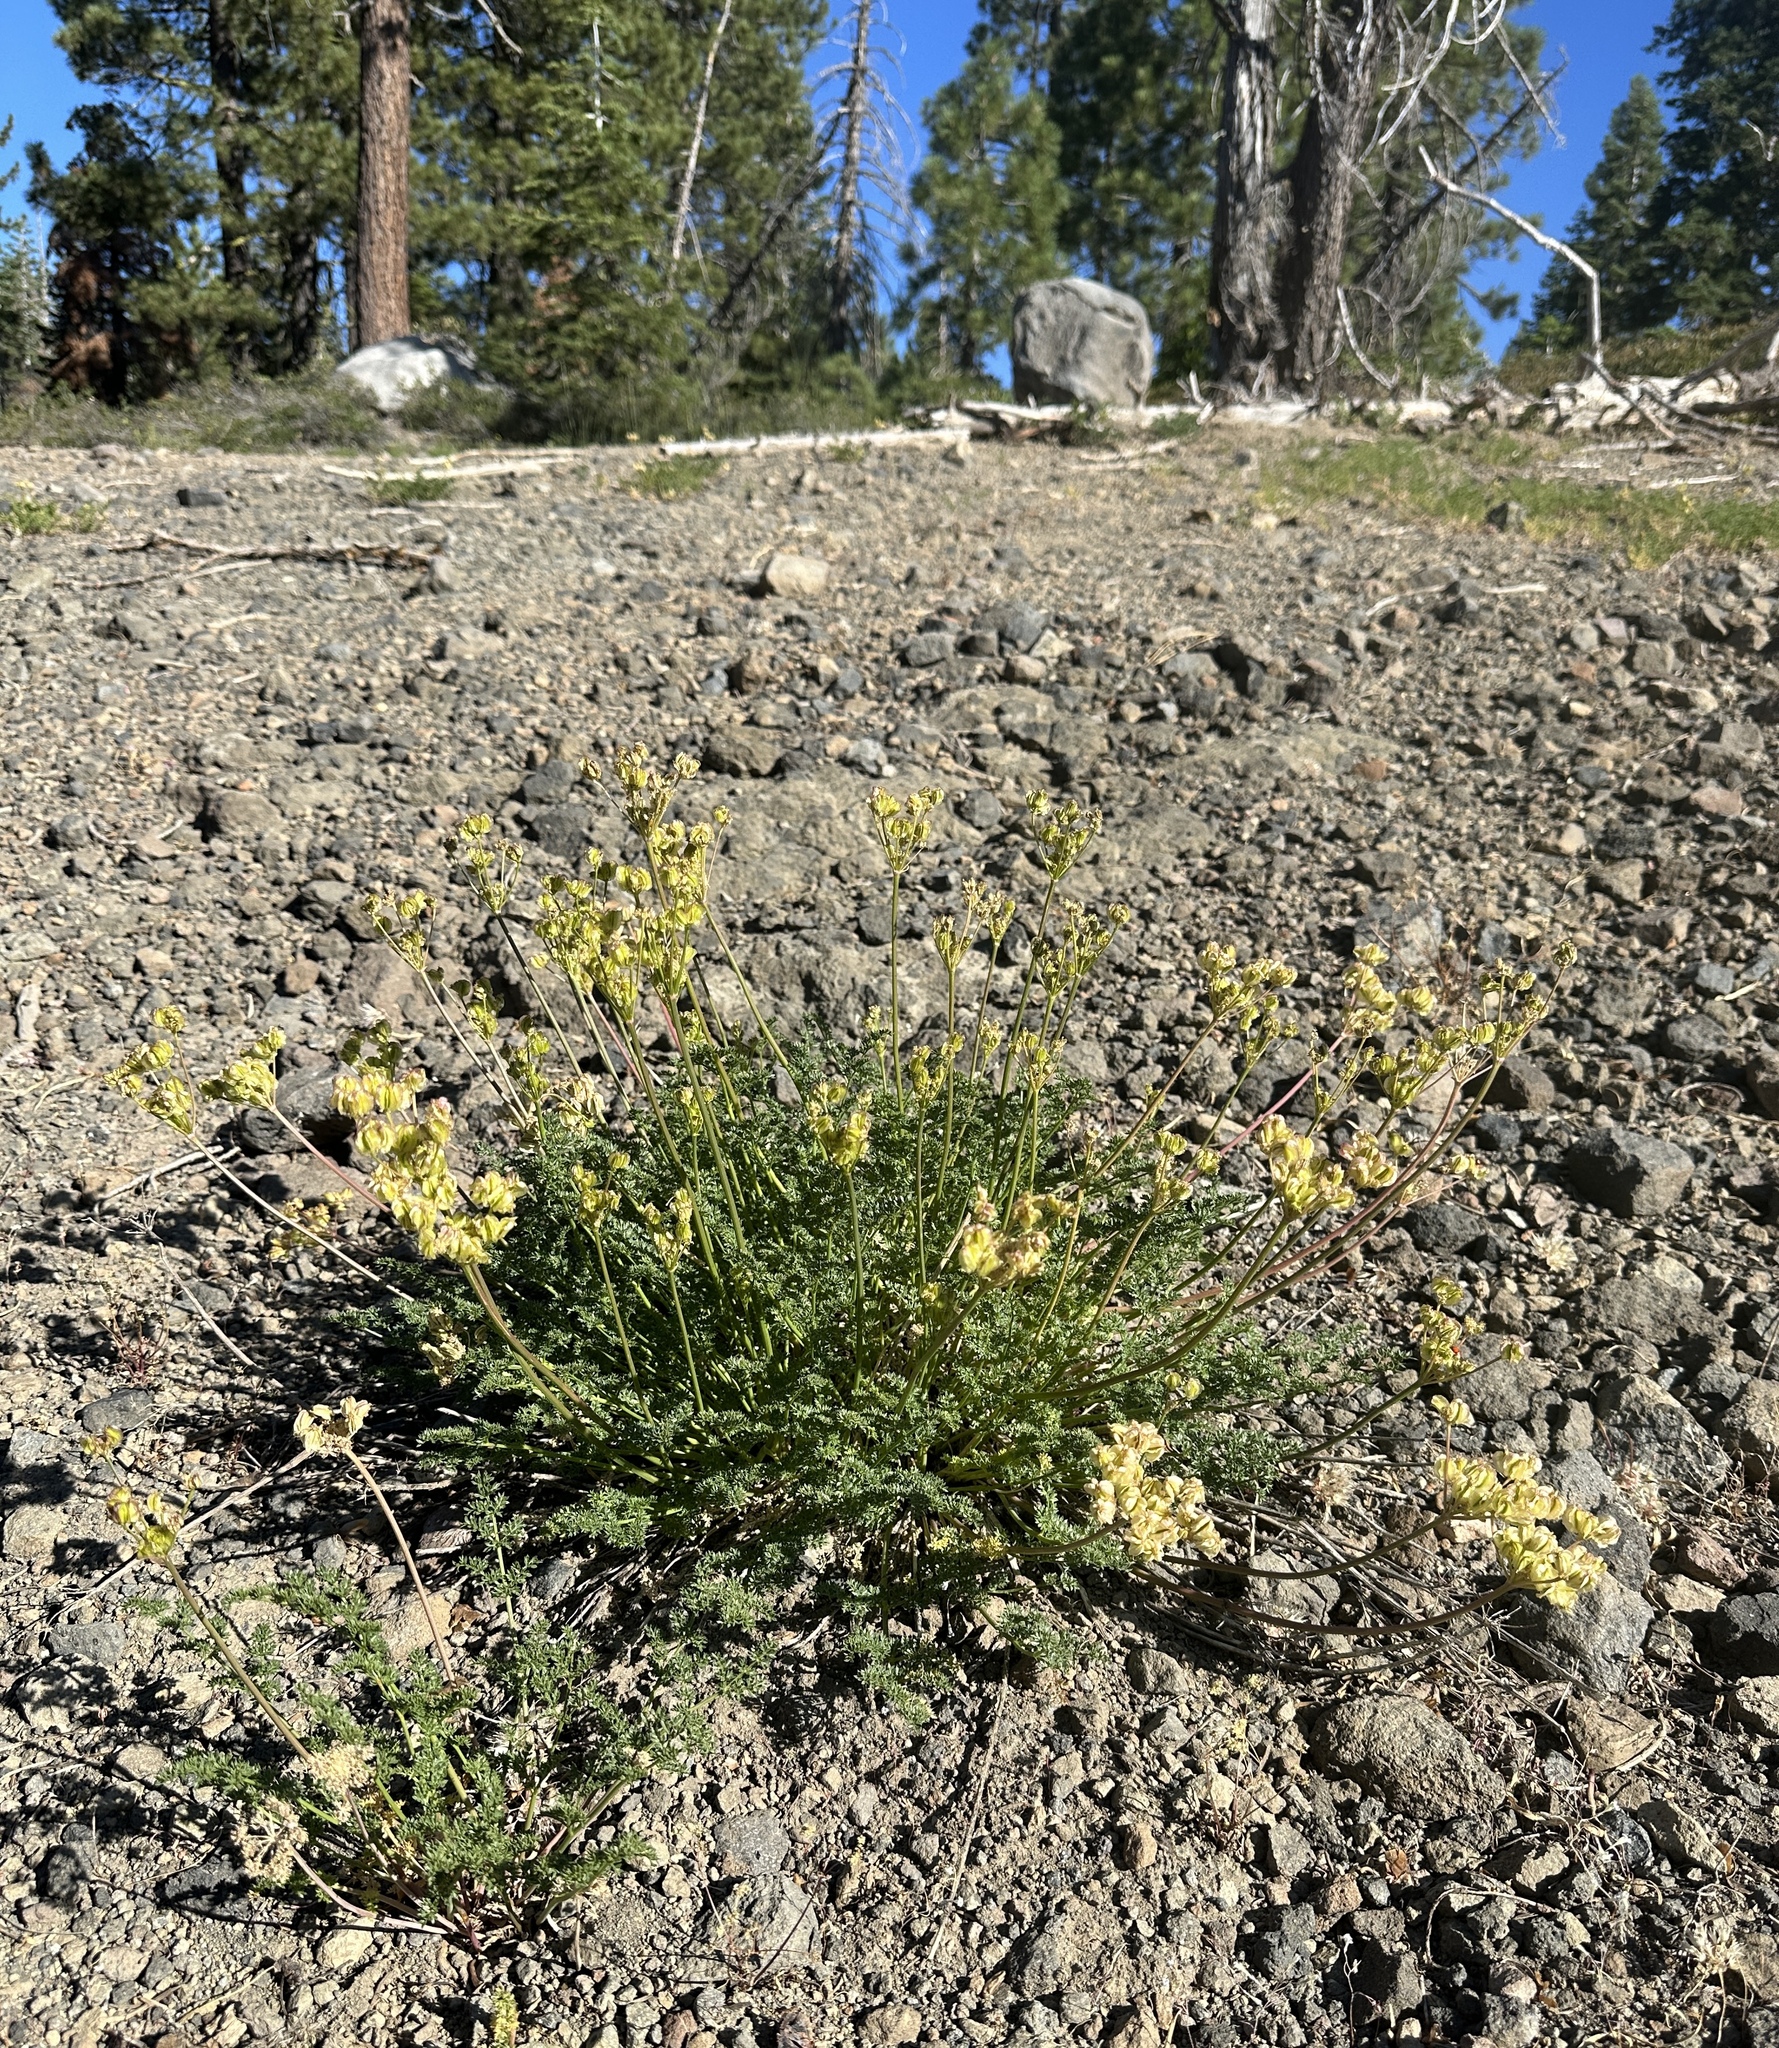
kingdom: Plantae
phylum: Tracheophyta
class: Magnoliopsida
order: Apiales
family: Apiaceae
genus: Pteryxia
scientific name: Pteryxia terebinthina
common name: Turpentine wavewing
